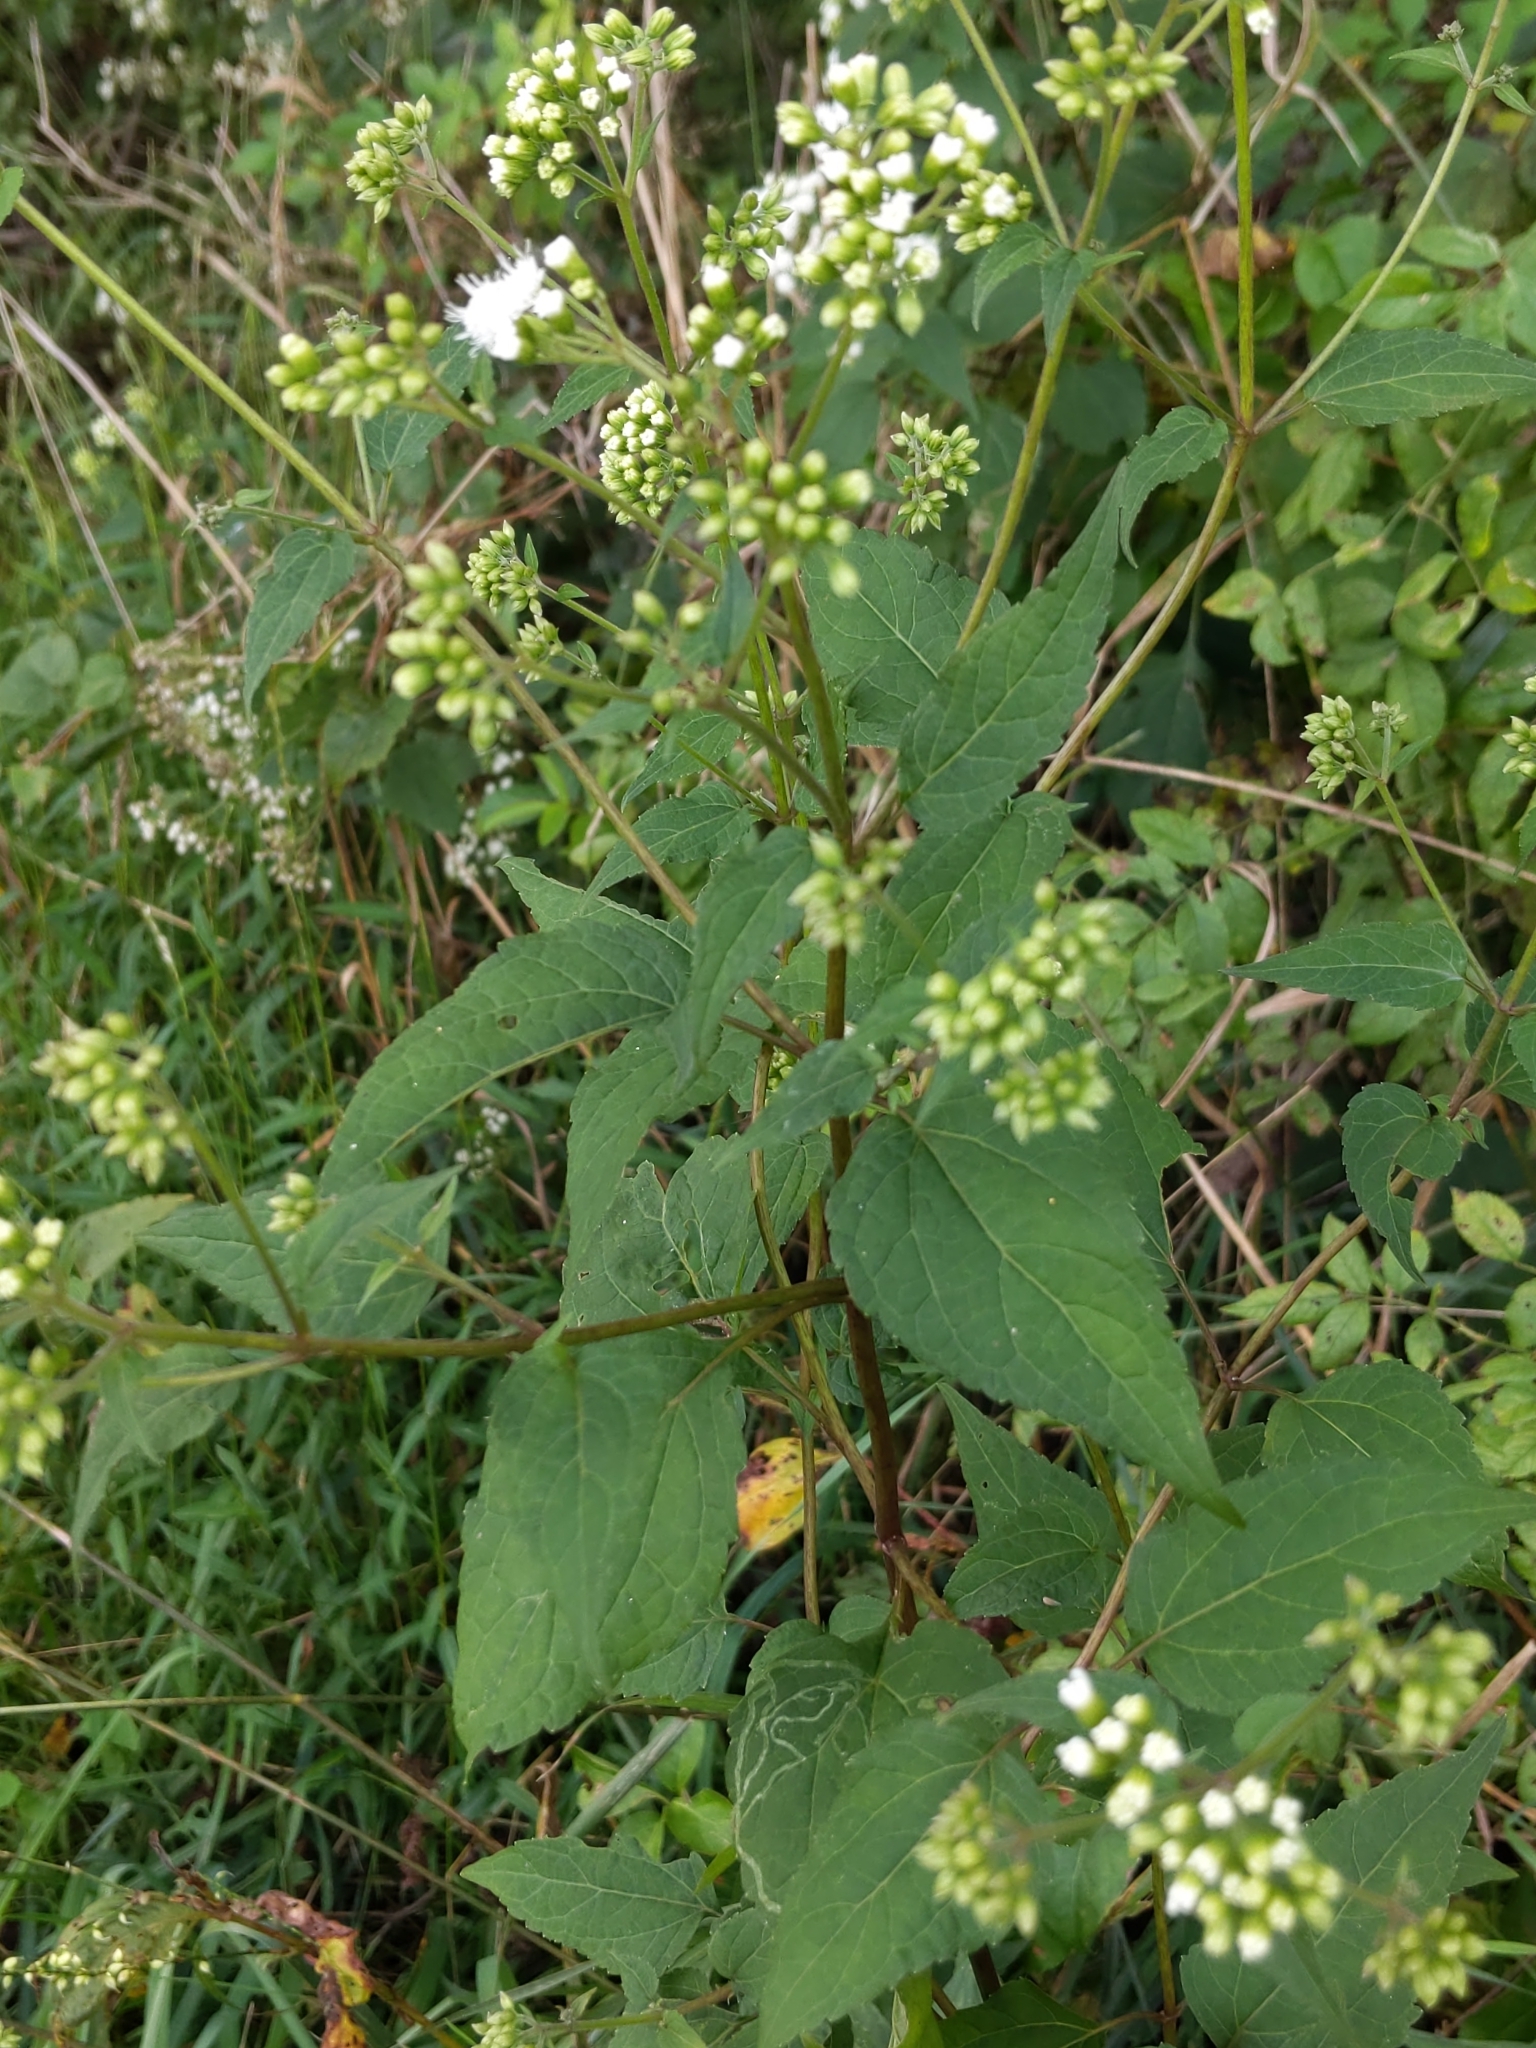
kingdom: Plantae
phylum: Tracheophyta
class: Magnoliopsida
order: Asterales
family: Asteraceae
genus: Ageratina
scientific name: Ageratina altissima
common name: White snakeroot
